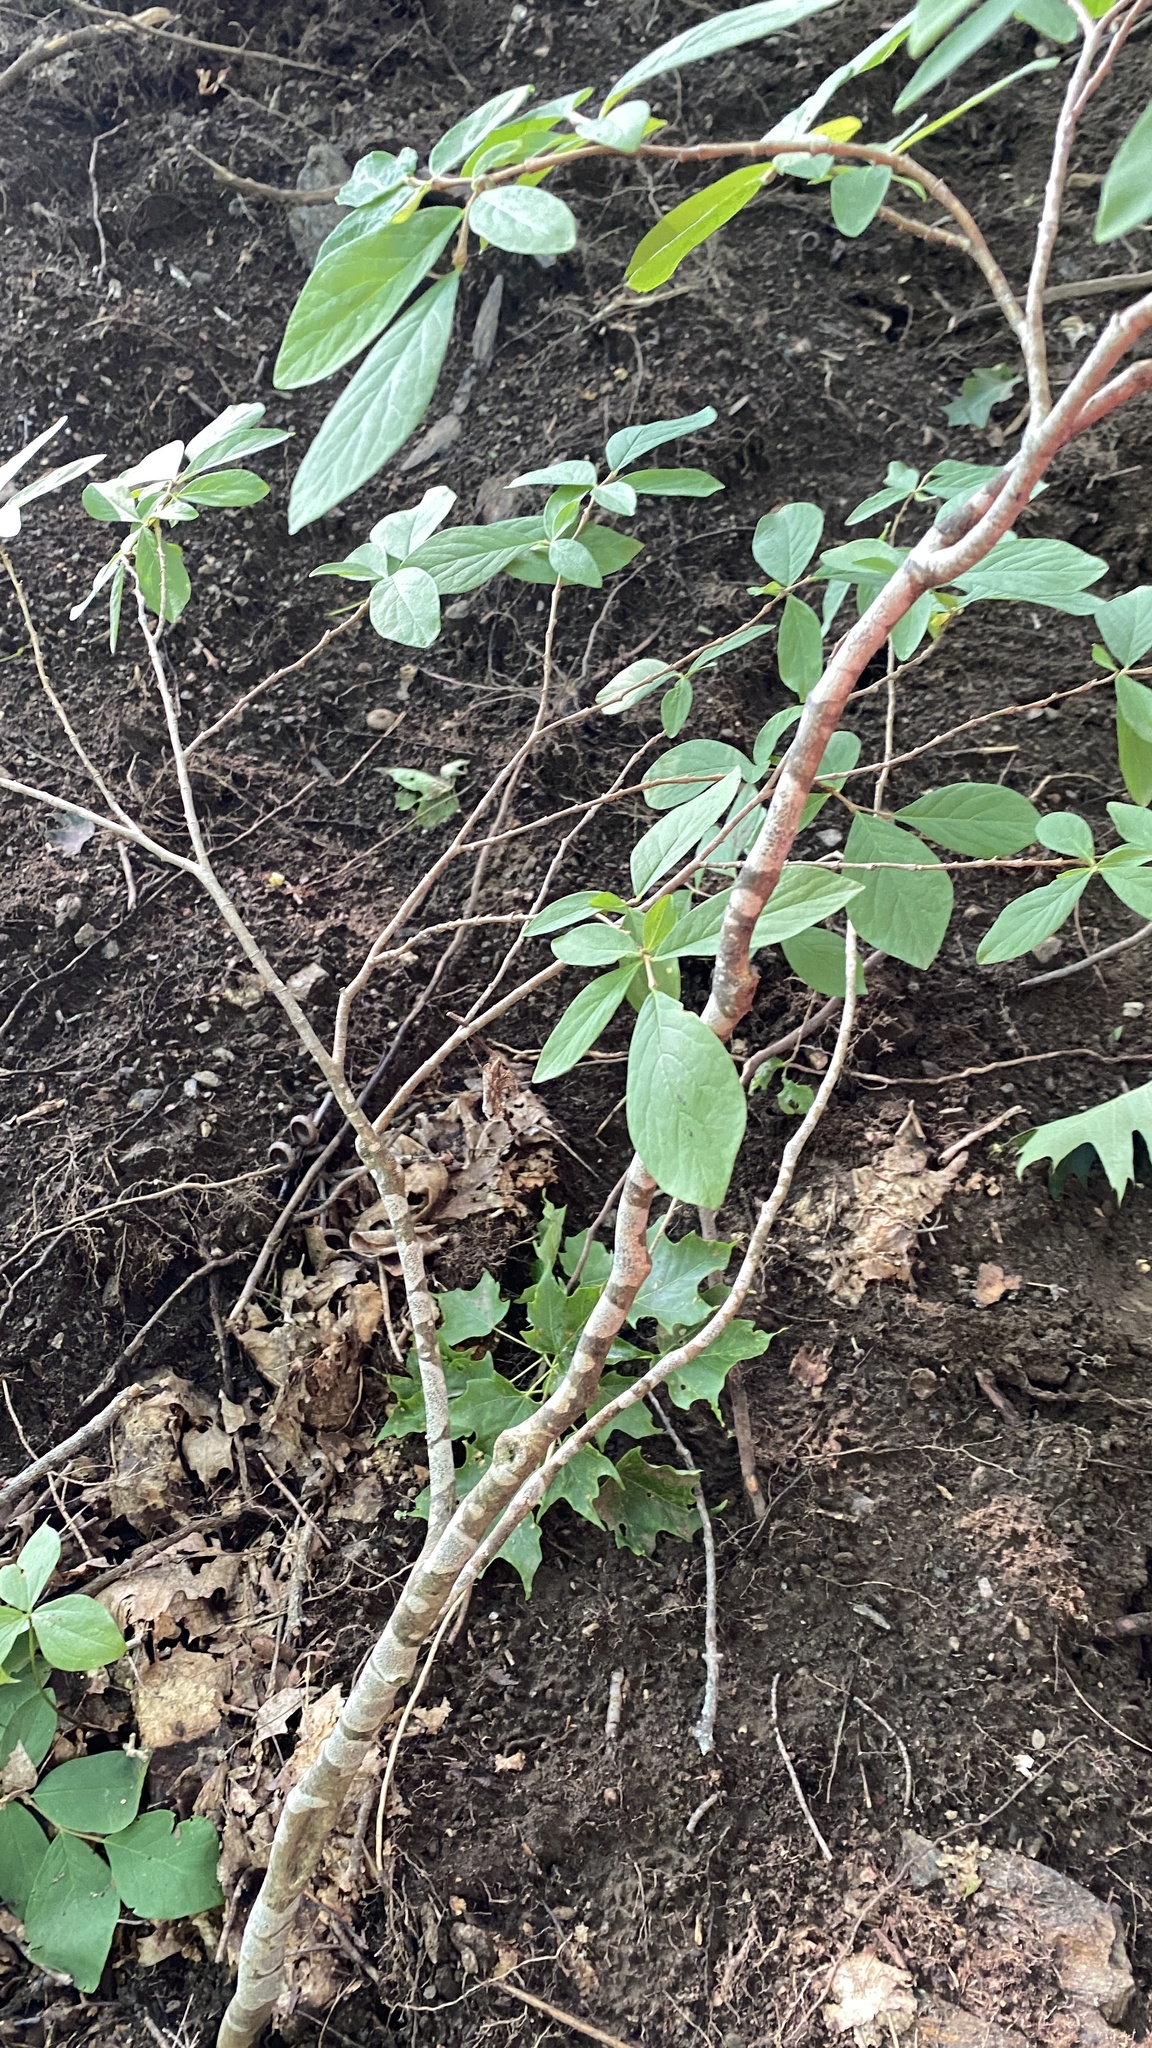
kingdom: Plantae
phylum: Tracheophyta
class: Magnoliopsida
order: Malvales
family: Thymelaeaceae
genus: Dirca
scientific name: Dirca palustris
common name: Leatherwood
